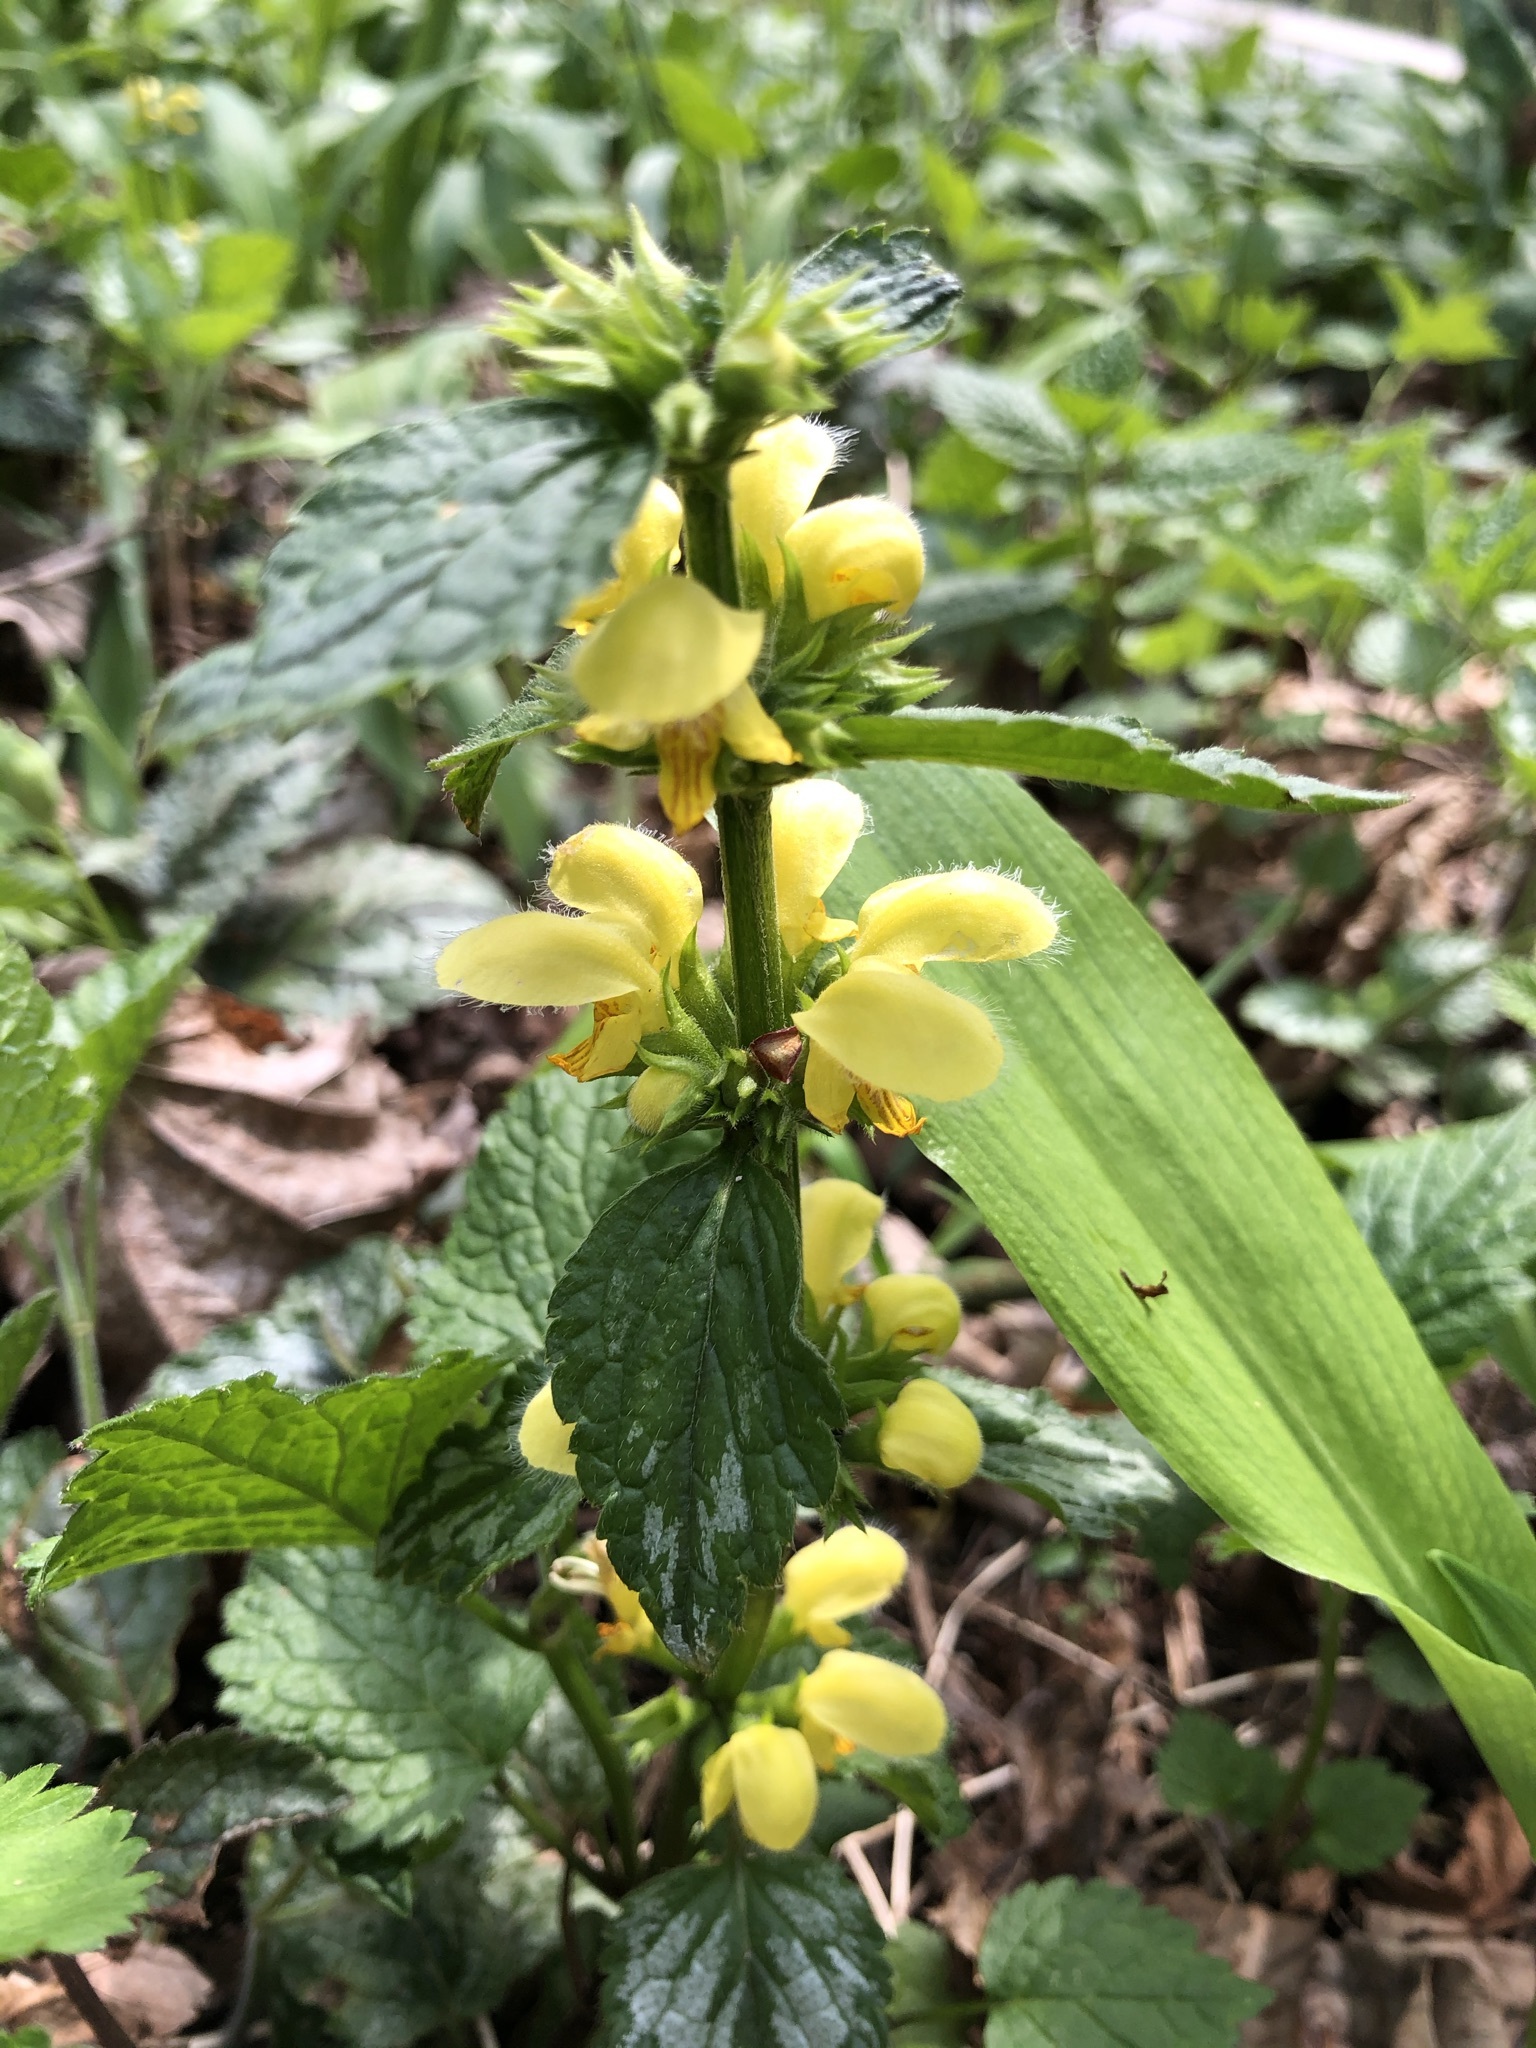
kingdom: Plantae
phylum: Tracheophyta
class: Magnoliopsida
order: Lamiales
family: Lamiaceae
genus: Lamium
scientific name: Lamium galeobdolon
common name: Yellow archangel
